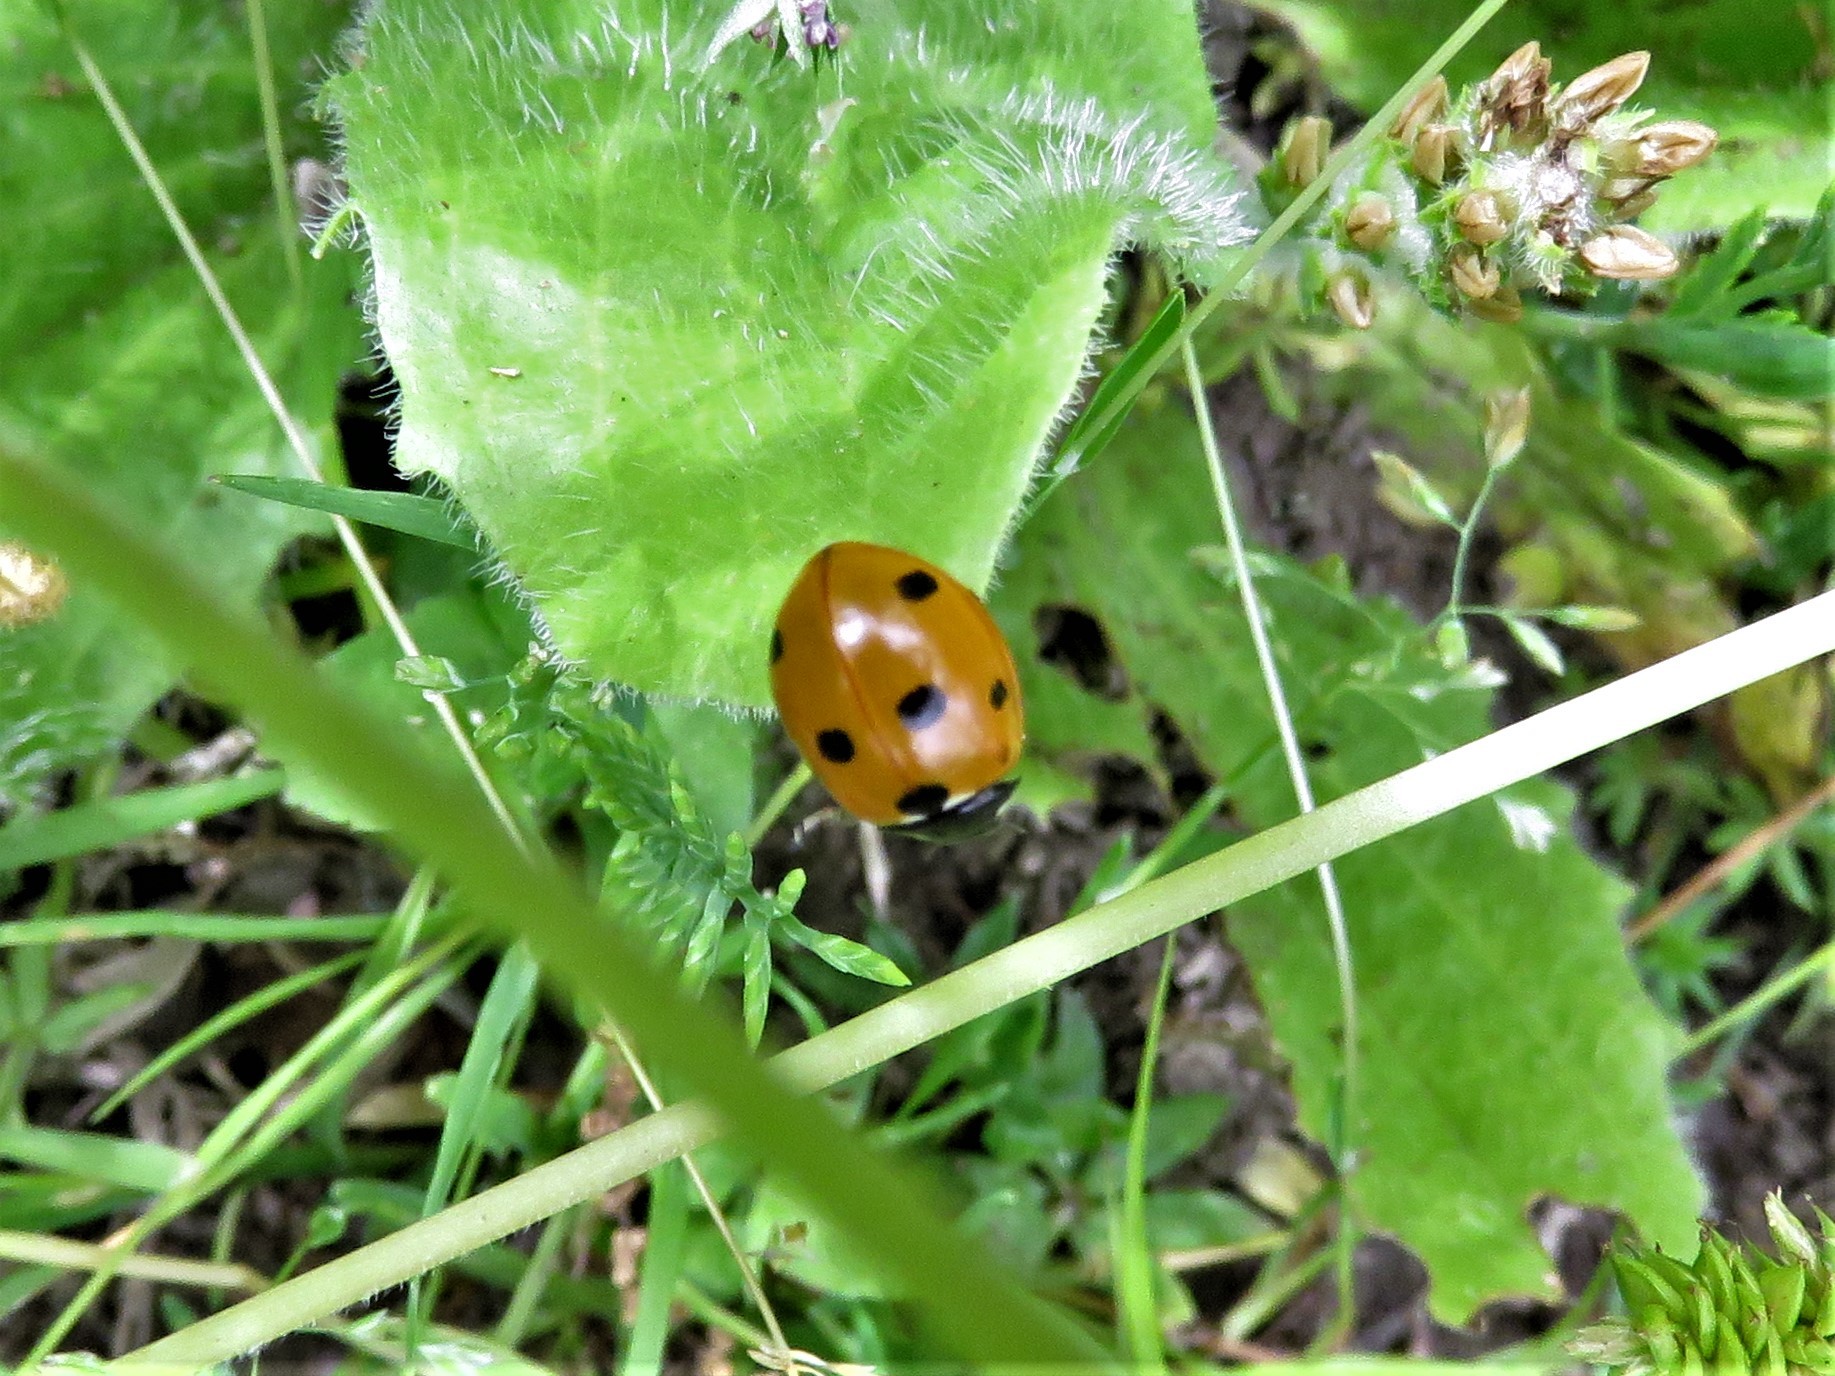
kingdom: Animalia
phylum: Arthropoda
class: Insecta
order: Coleoptera
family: Coccinellidae
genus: Coccinella
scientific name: Coccinella septempunctata
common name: Sevenspotted lady beetle
